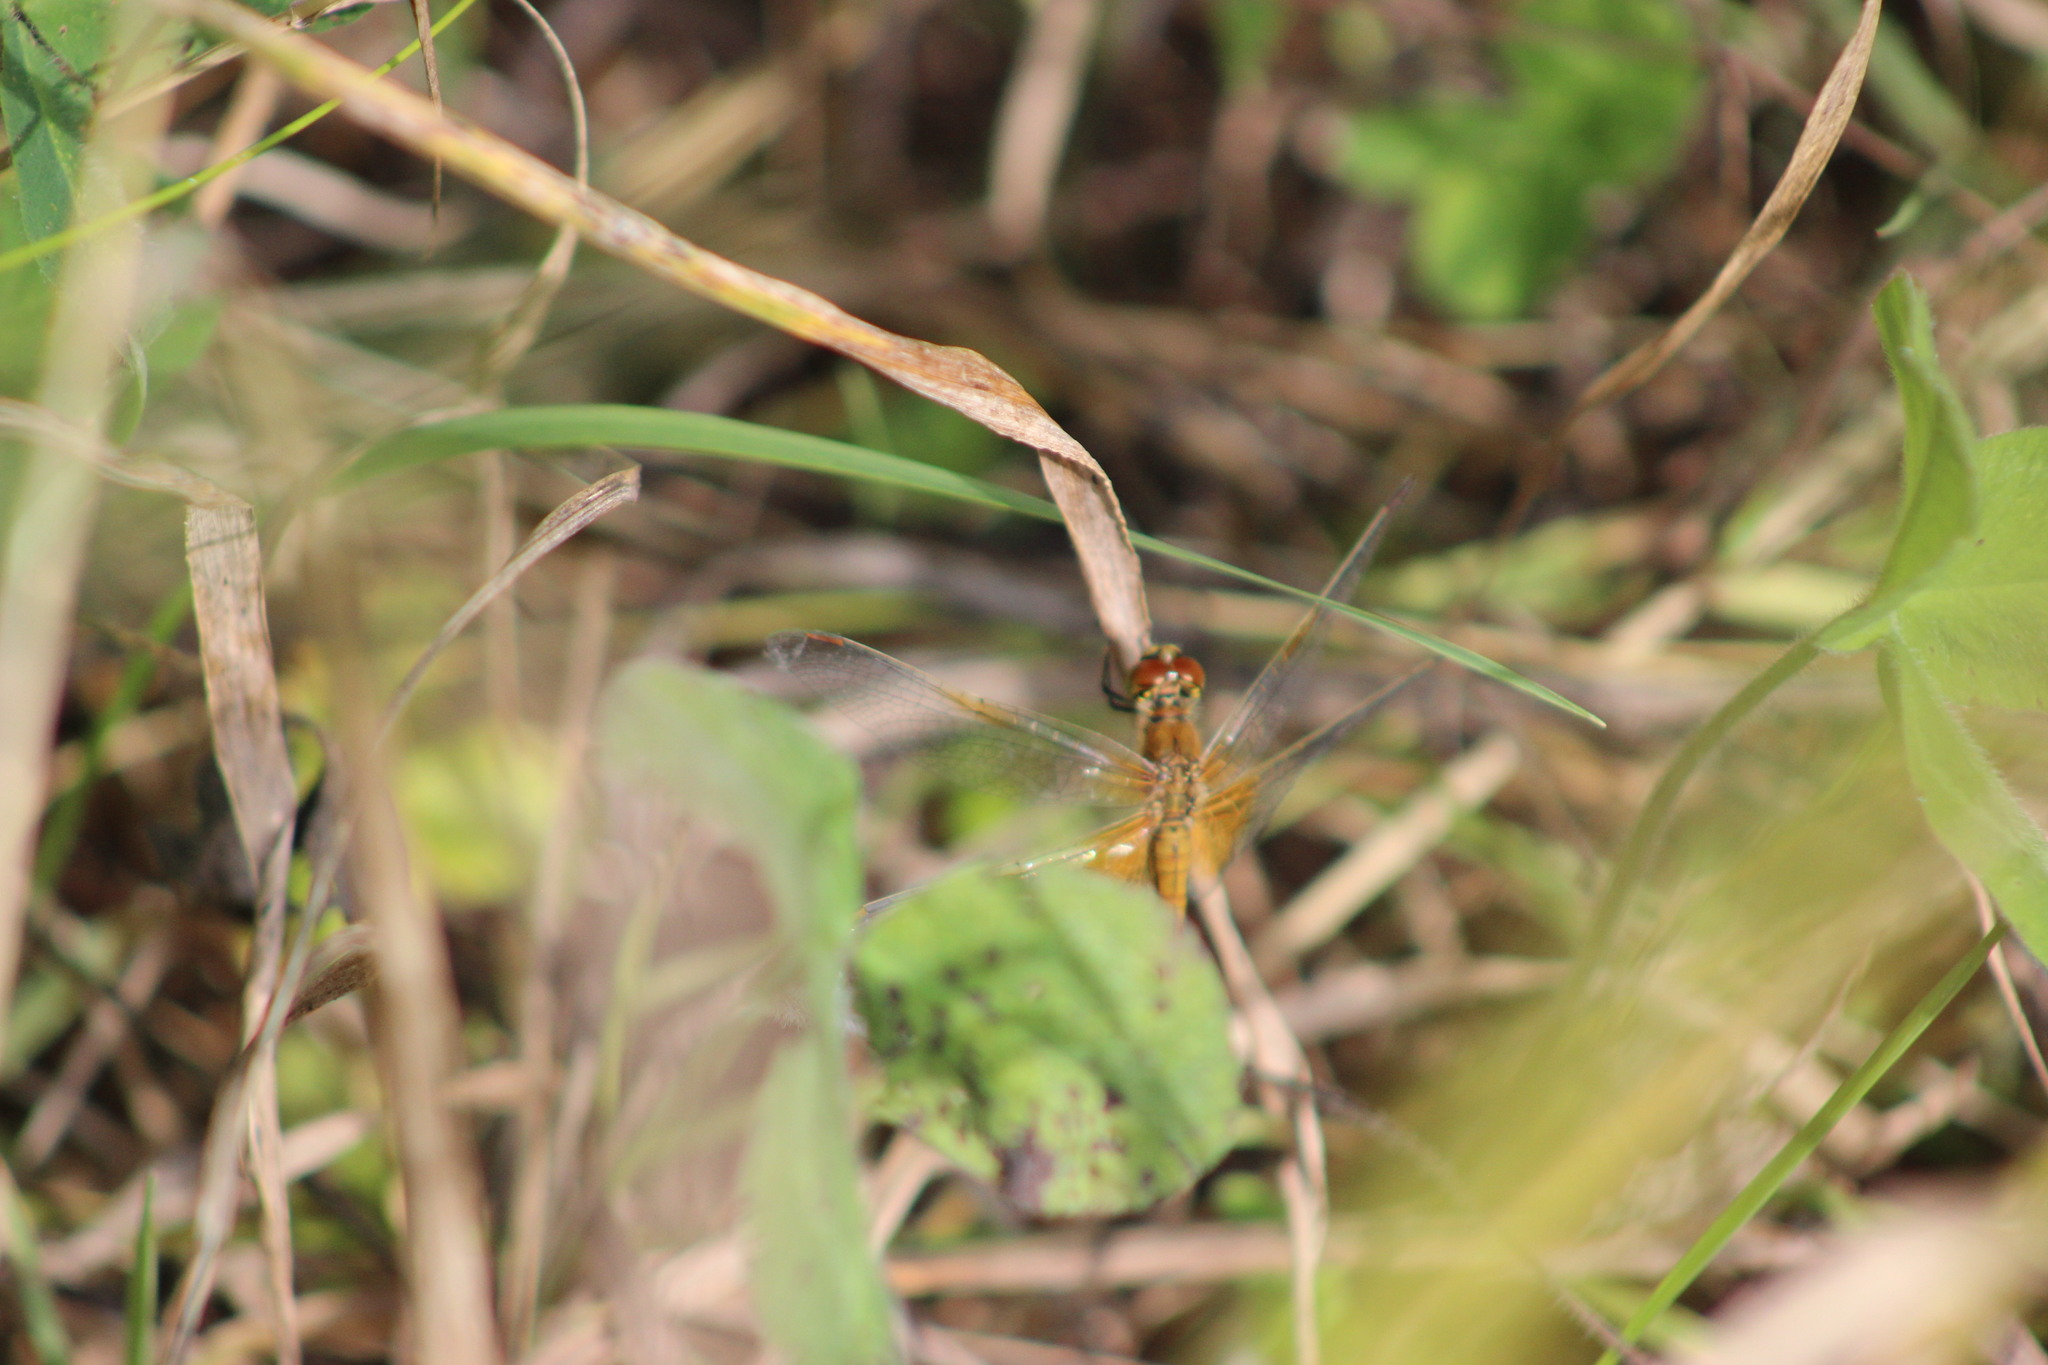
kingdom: Animalia
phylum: Arthropoda
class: Insecta
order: Odonata
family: Libellulidae
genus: Sympetrum
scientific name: Sympetrum flaveolum
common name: Yellow-winged darter
